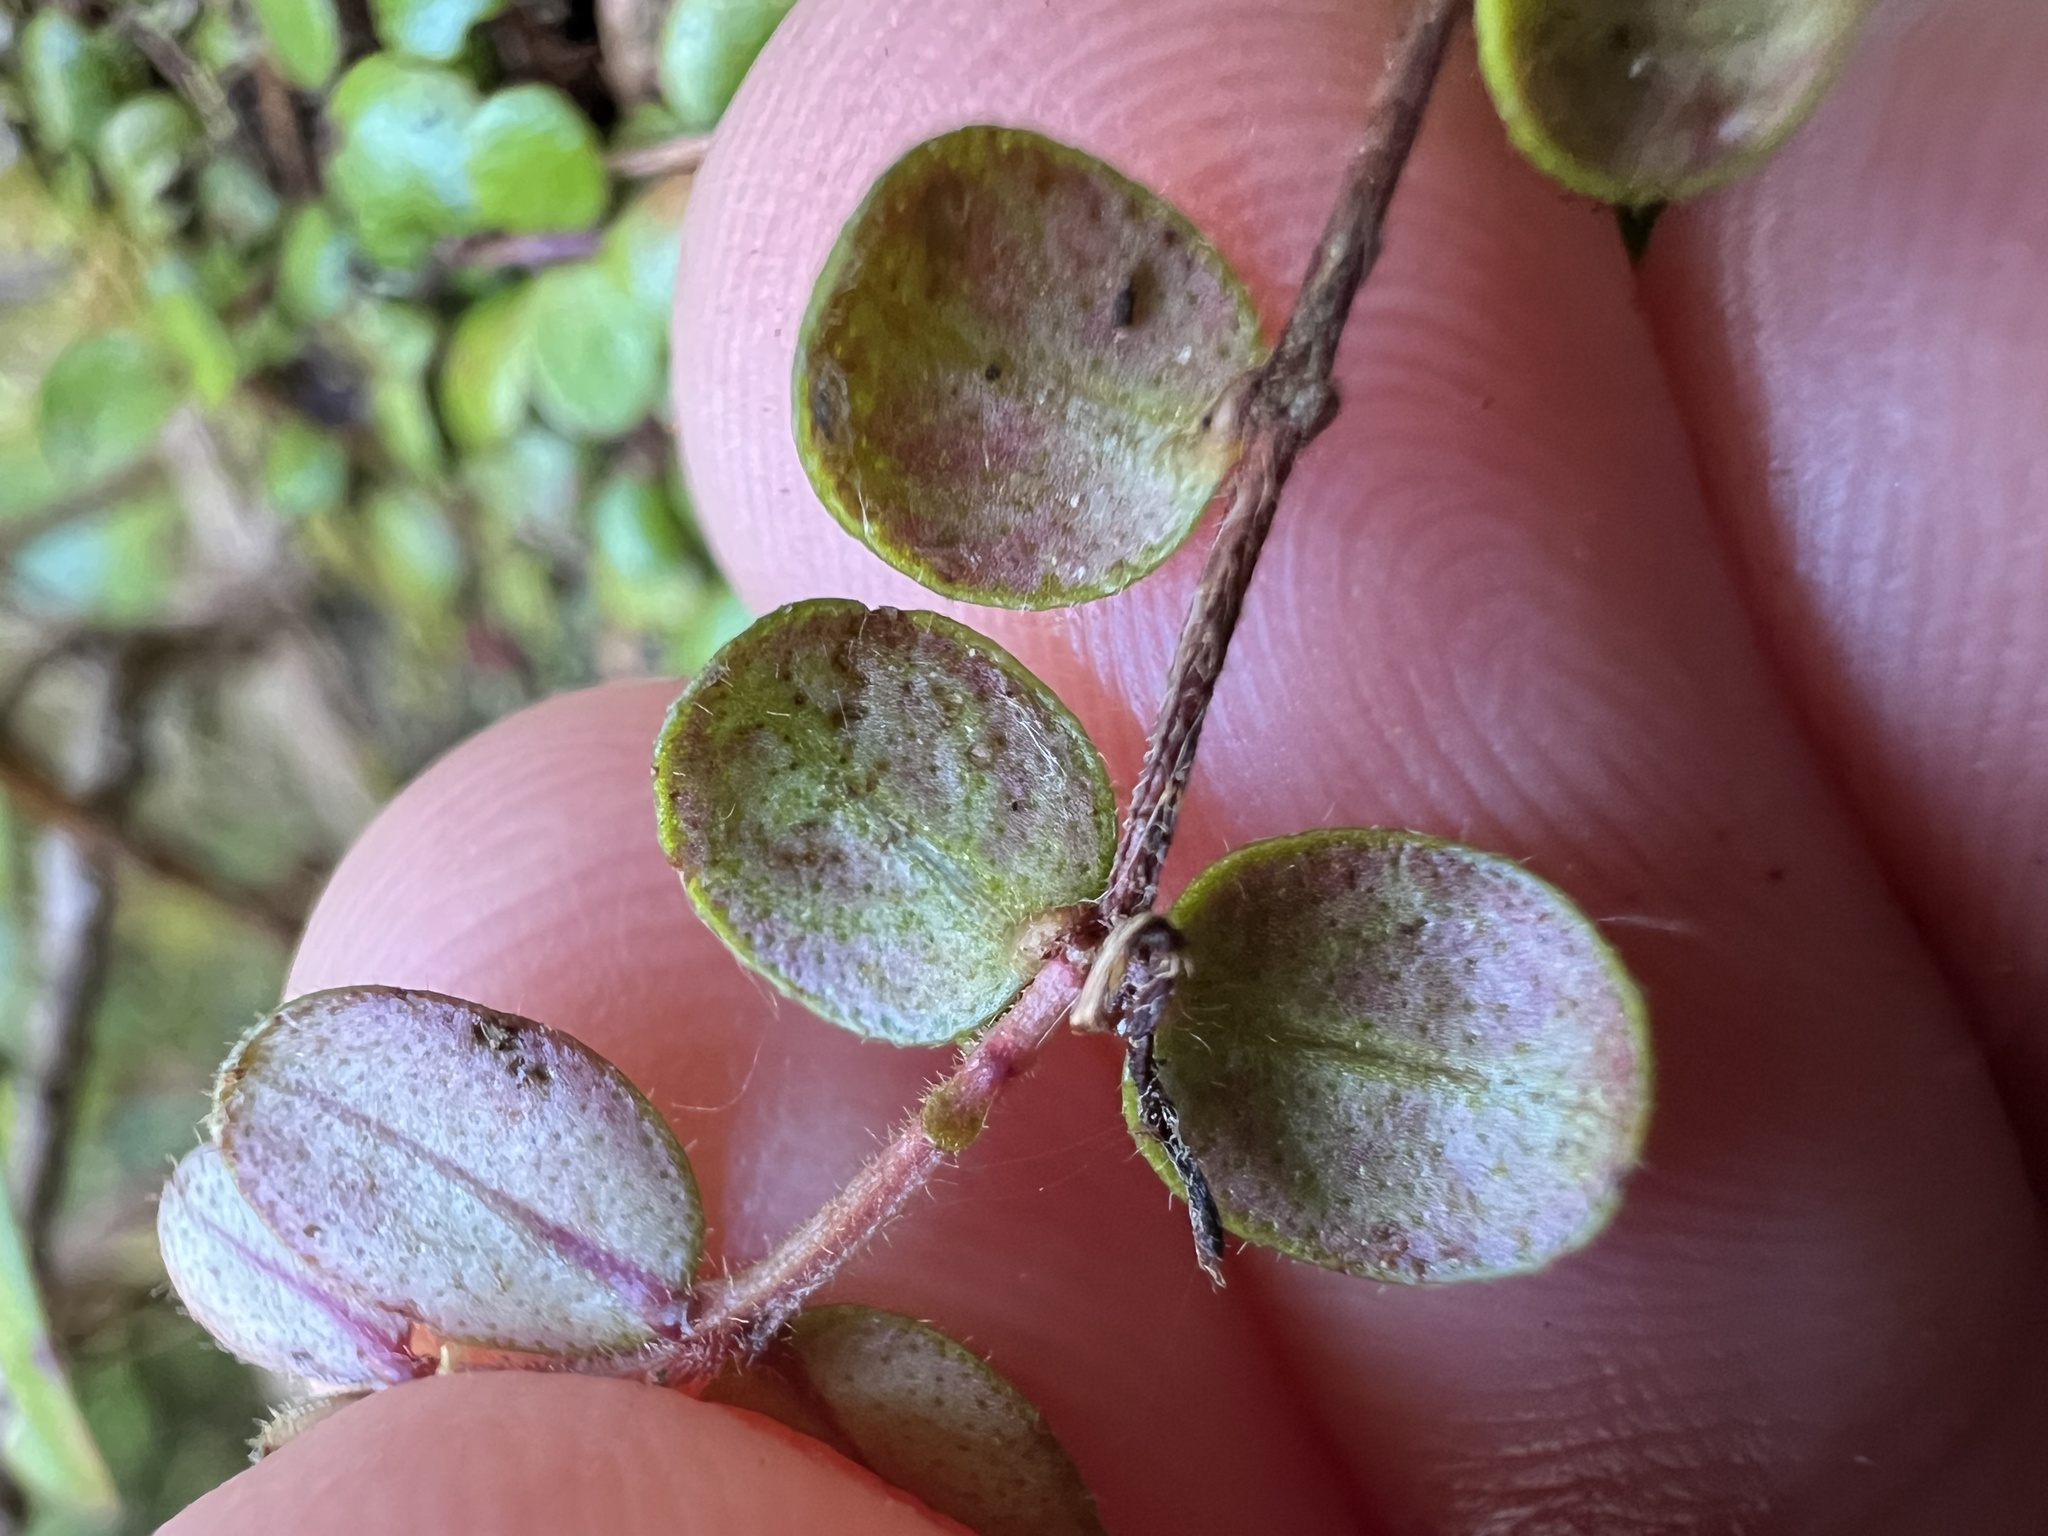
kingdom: Plantae
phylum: Tracheophyta
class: Magnoliopsida
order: Myrtales
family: Myrtaceae
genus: Metrosideros
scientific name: Metrosideros carminea
